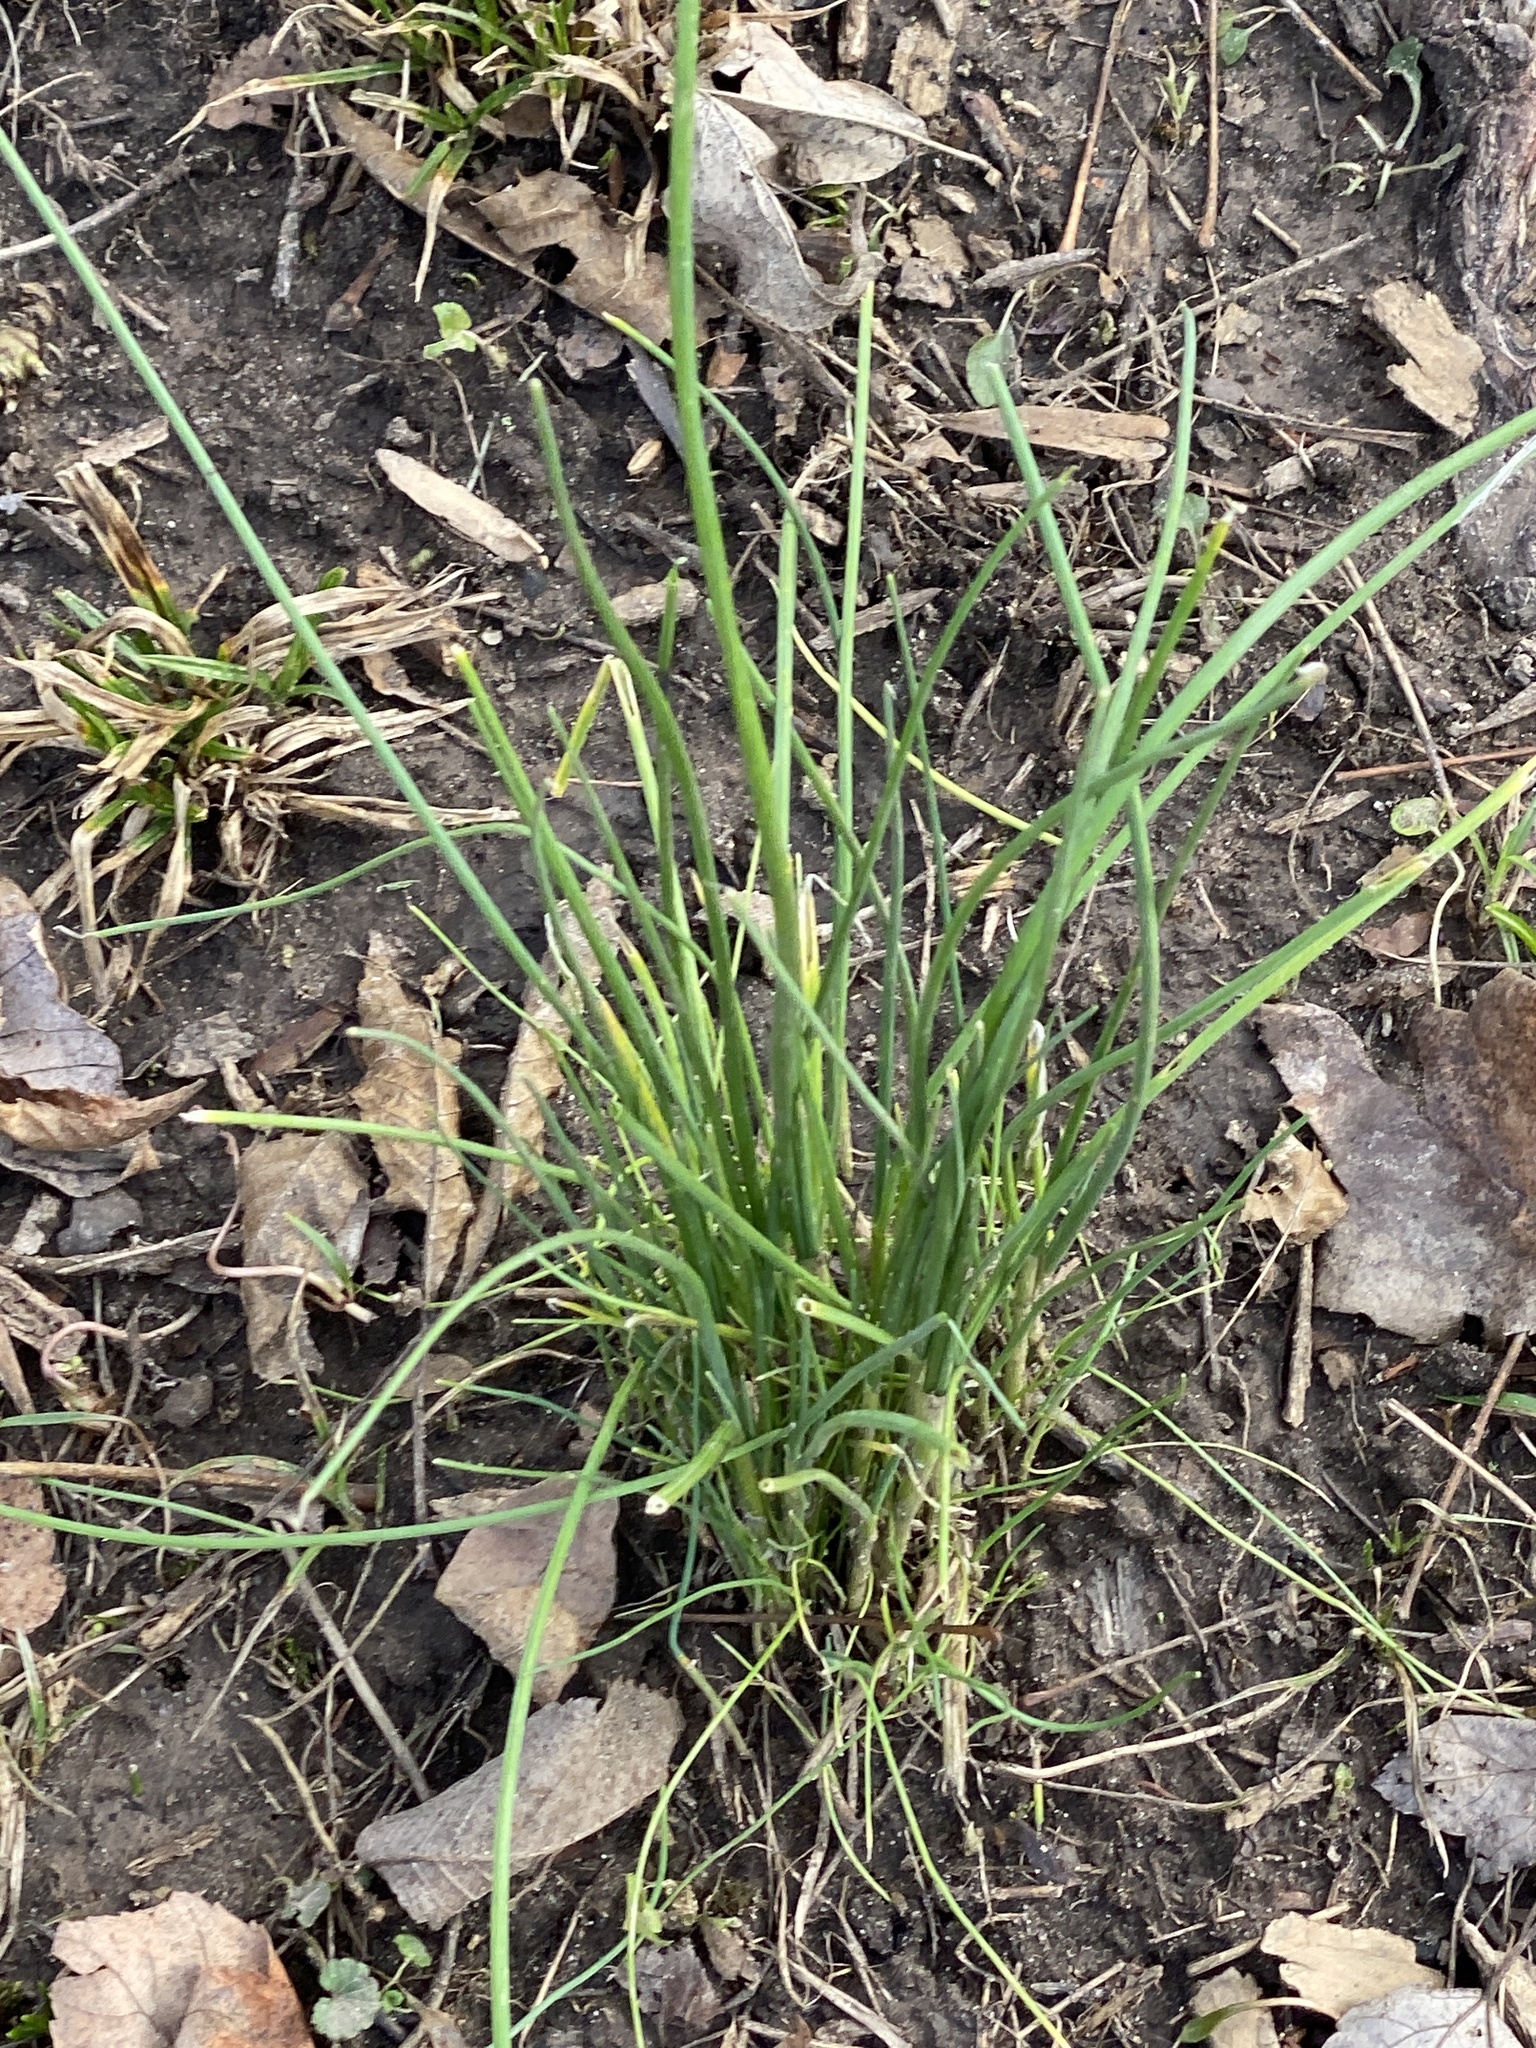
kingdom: Plantae
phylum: Tracheophyta
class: Liliopsida
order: Asparagales
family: Amaryllidaceae
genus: Allium
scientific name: Allium vineale
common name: Crow garlic
